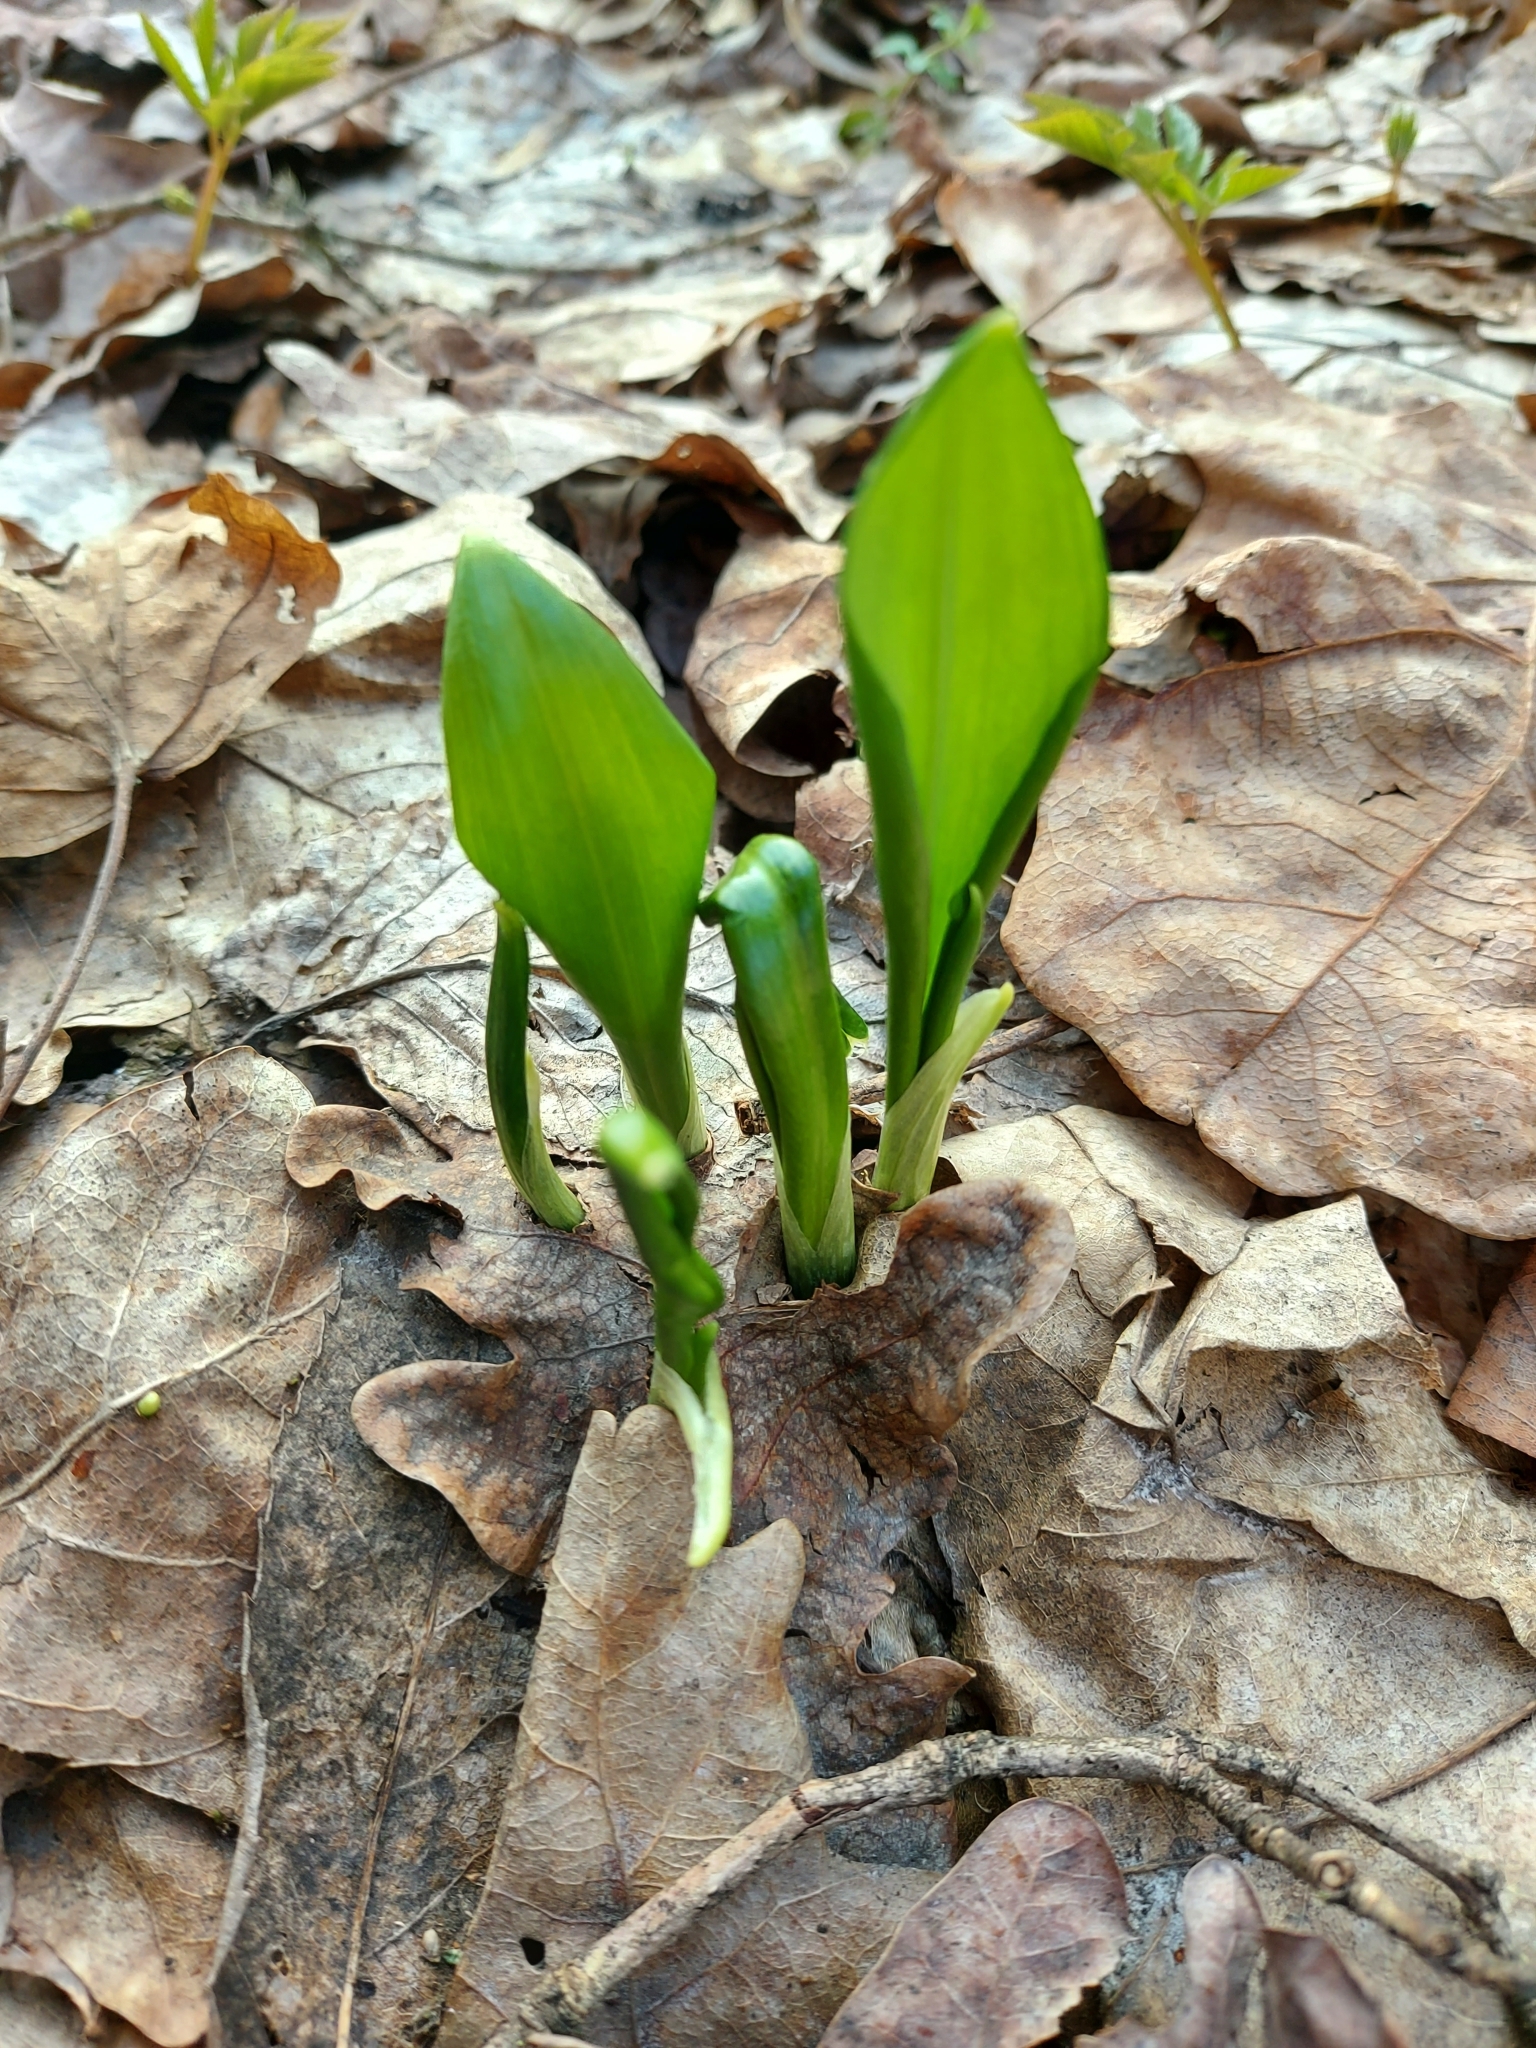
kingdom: Plantae
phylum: Tracheophyta
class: Liliopsida
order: Asparagales
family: Amaryllidaceae
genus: Allium
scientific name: Allium ursinum
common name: Ramsons
